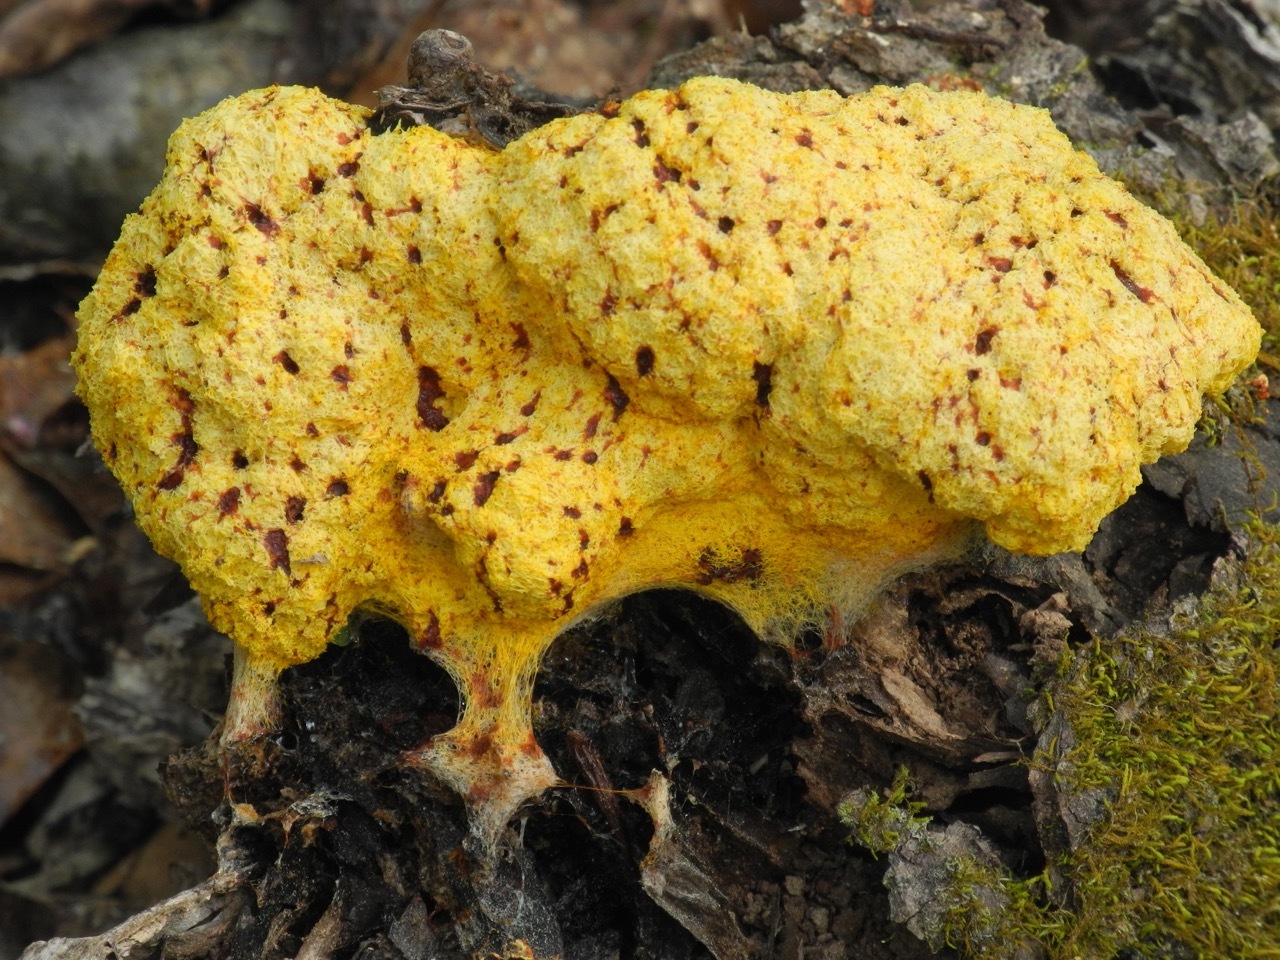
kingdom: Protozoa
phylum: Mycetozoa
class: Myxomycetes
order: Physarales
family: Physaraceae
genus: Fuligo
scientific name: Fuligo septica
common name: Dog vomit slime mold
